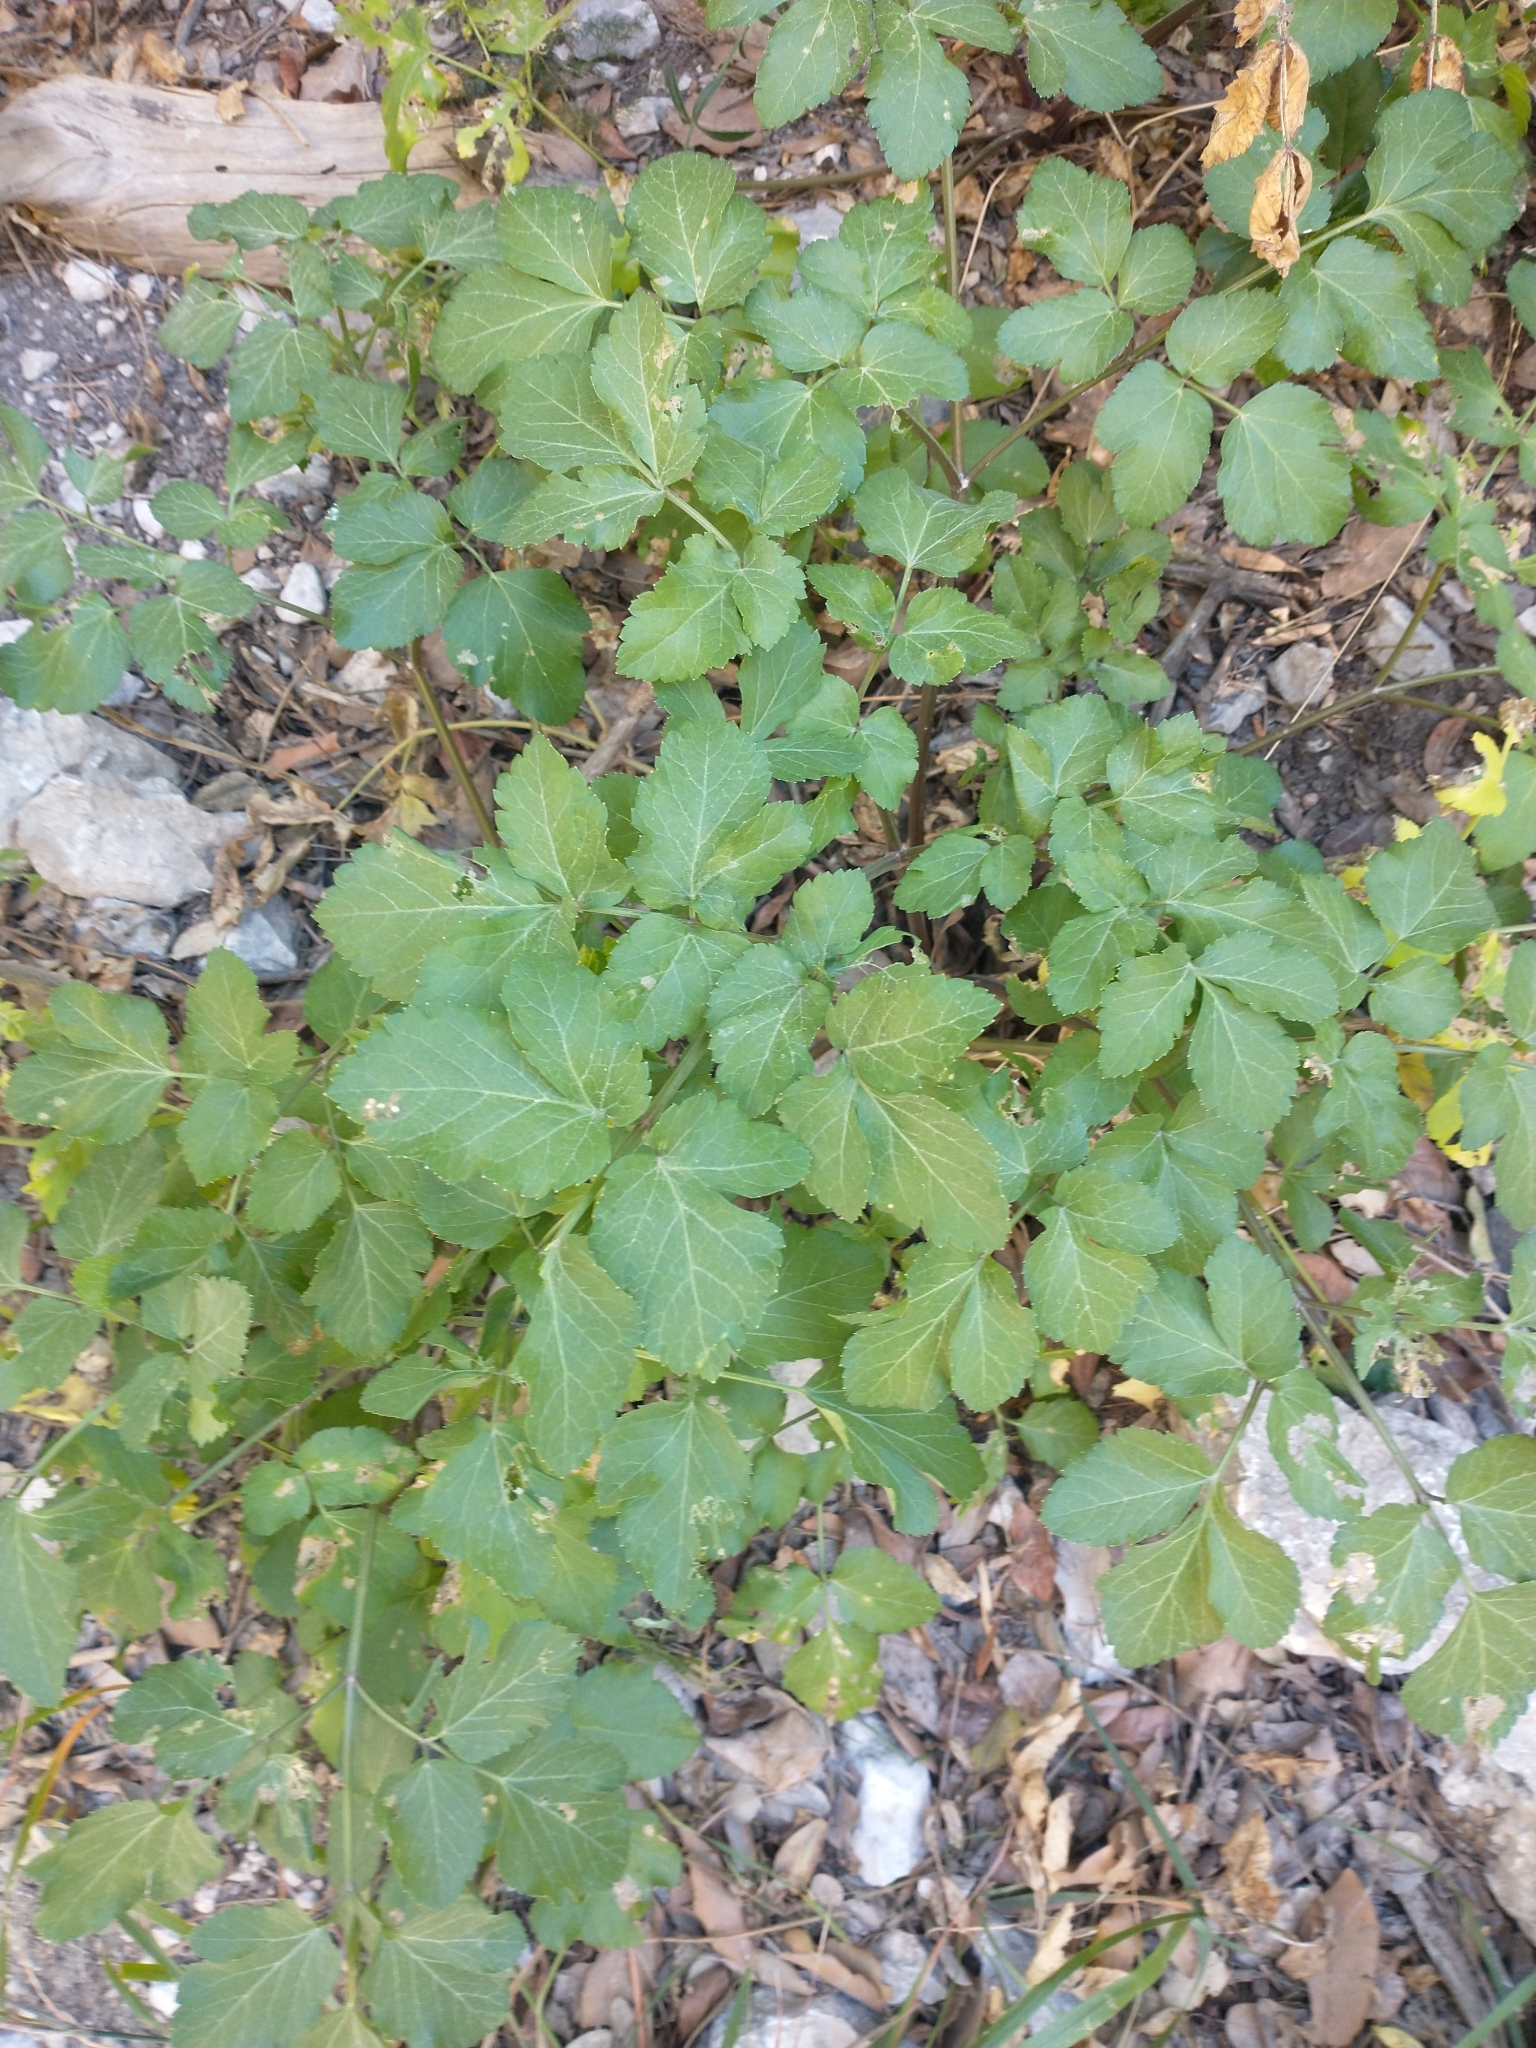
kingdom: Plantae
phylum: Tracheophyta
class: Magnoliopsida
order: Apiales
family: Apiaceae
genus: Smyrnium
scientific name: Smyrnium olusatrum
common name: Alexanders
